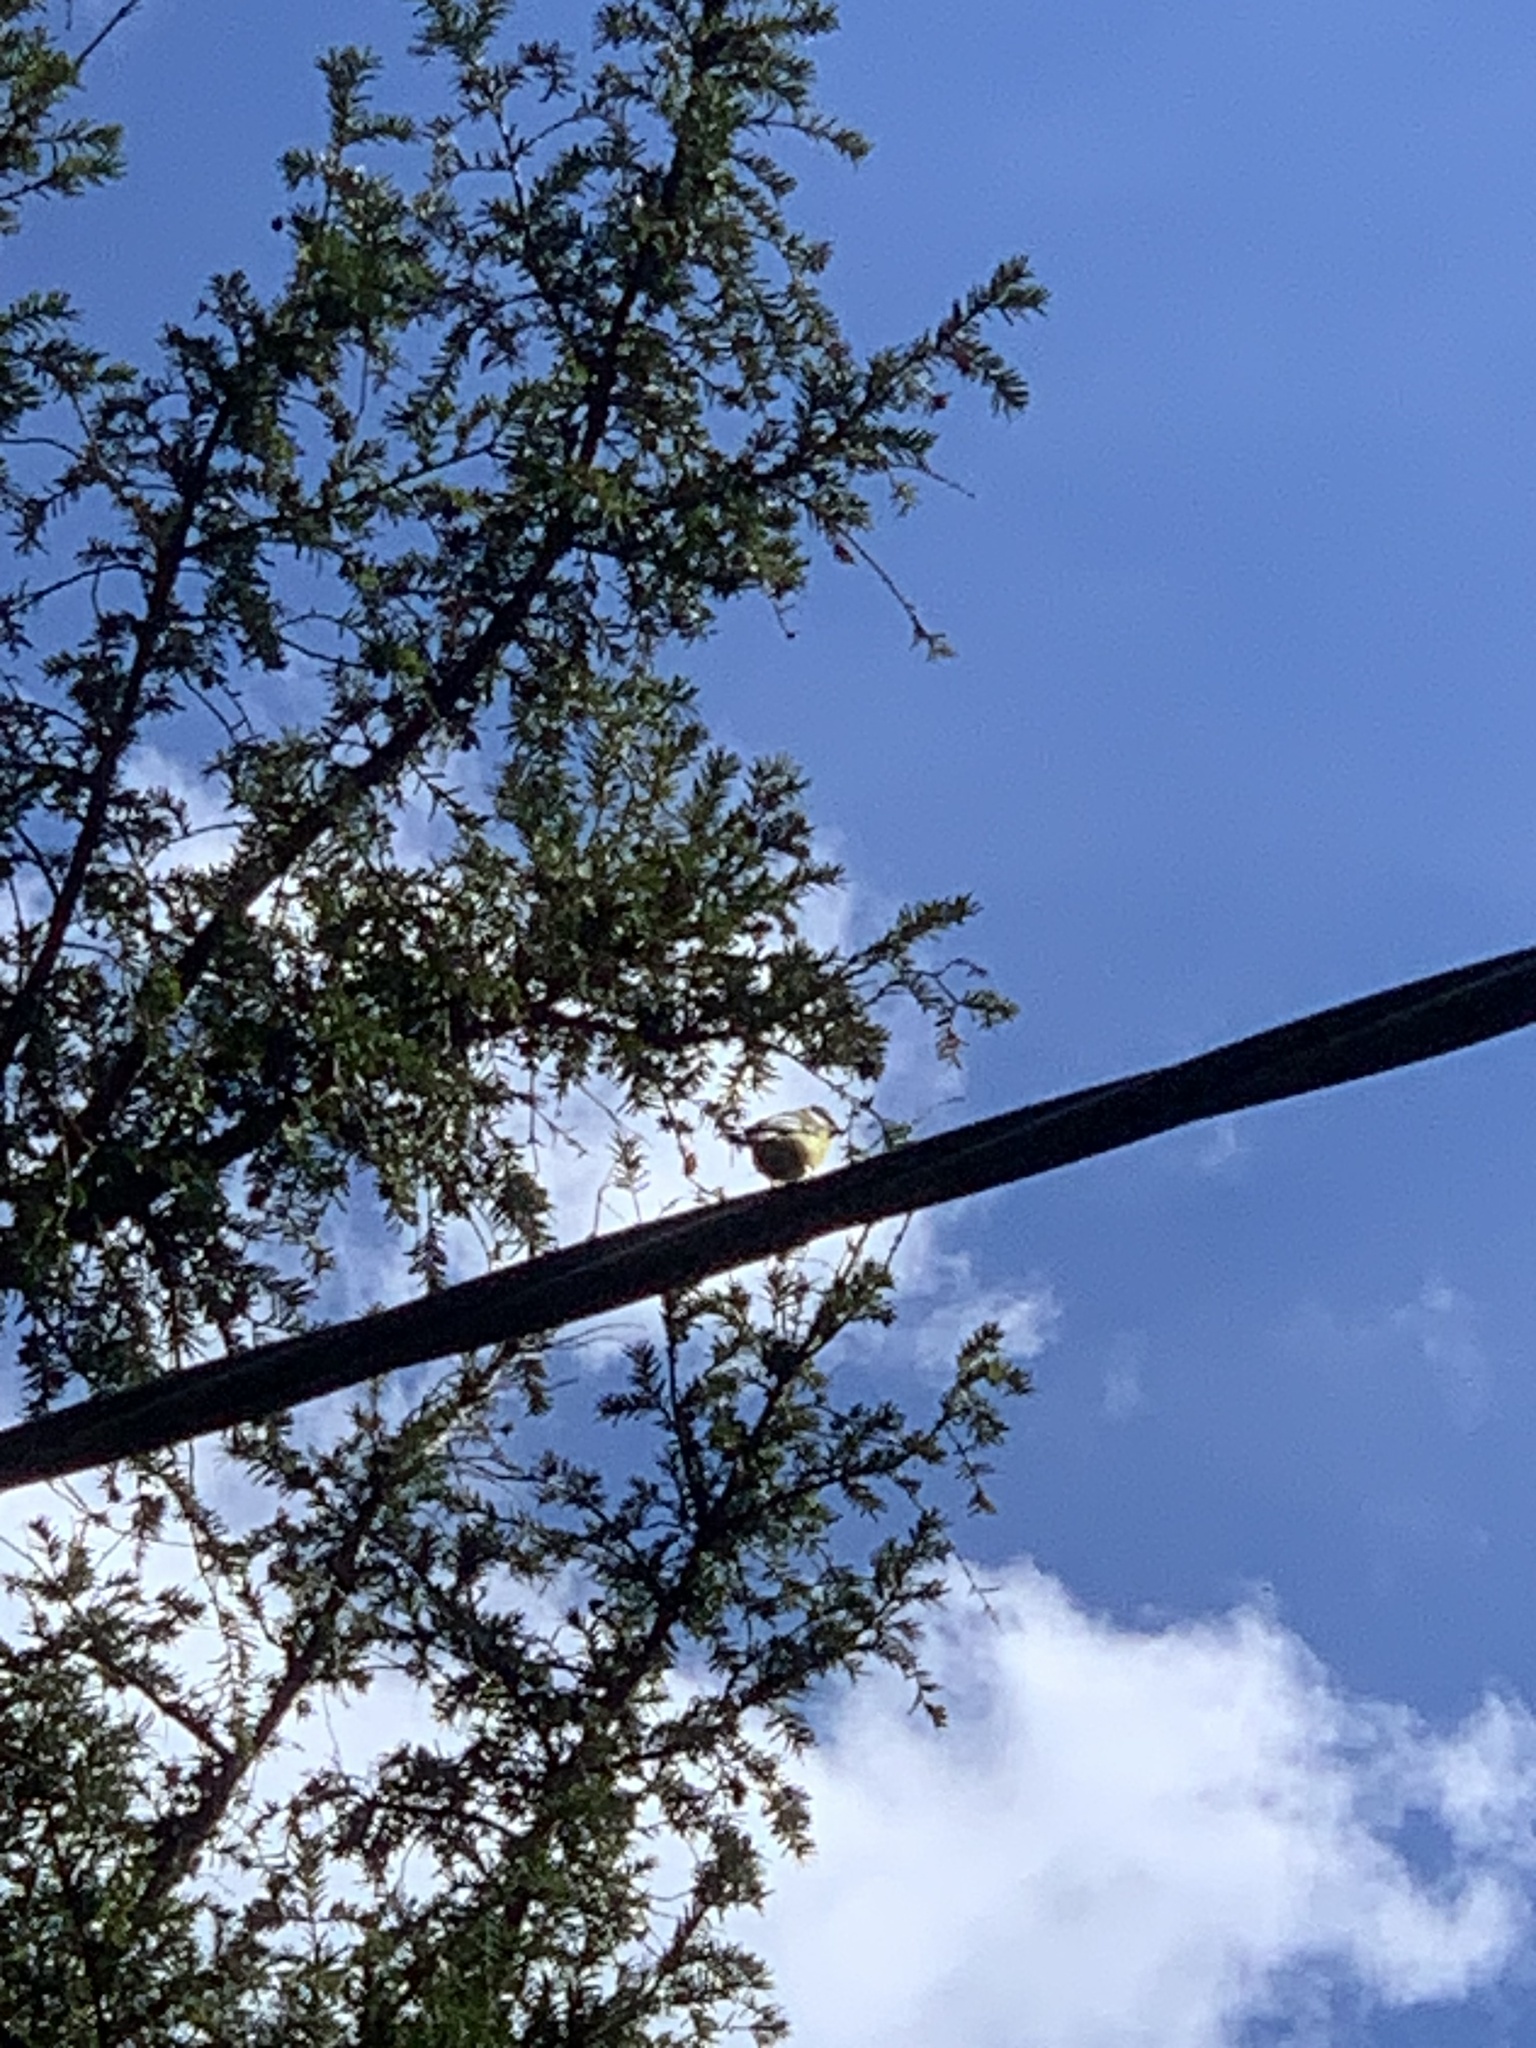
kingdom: Animalia
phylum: Chordata
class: Aves
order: Passeriformes
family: Paridae
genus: Parus
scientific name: Parus major
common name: Great tit
